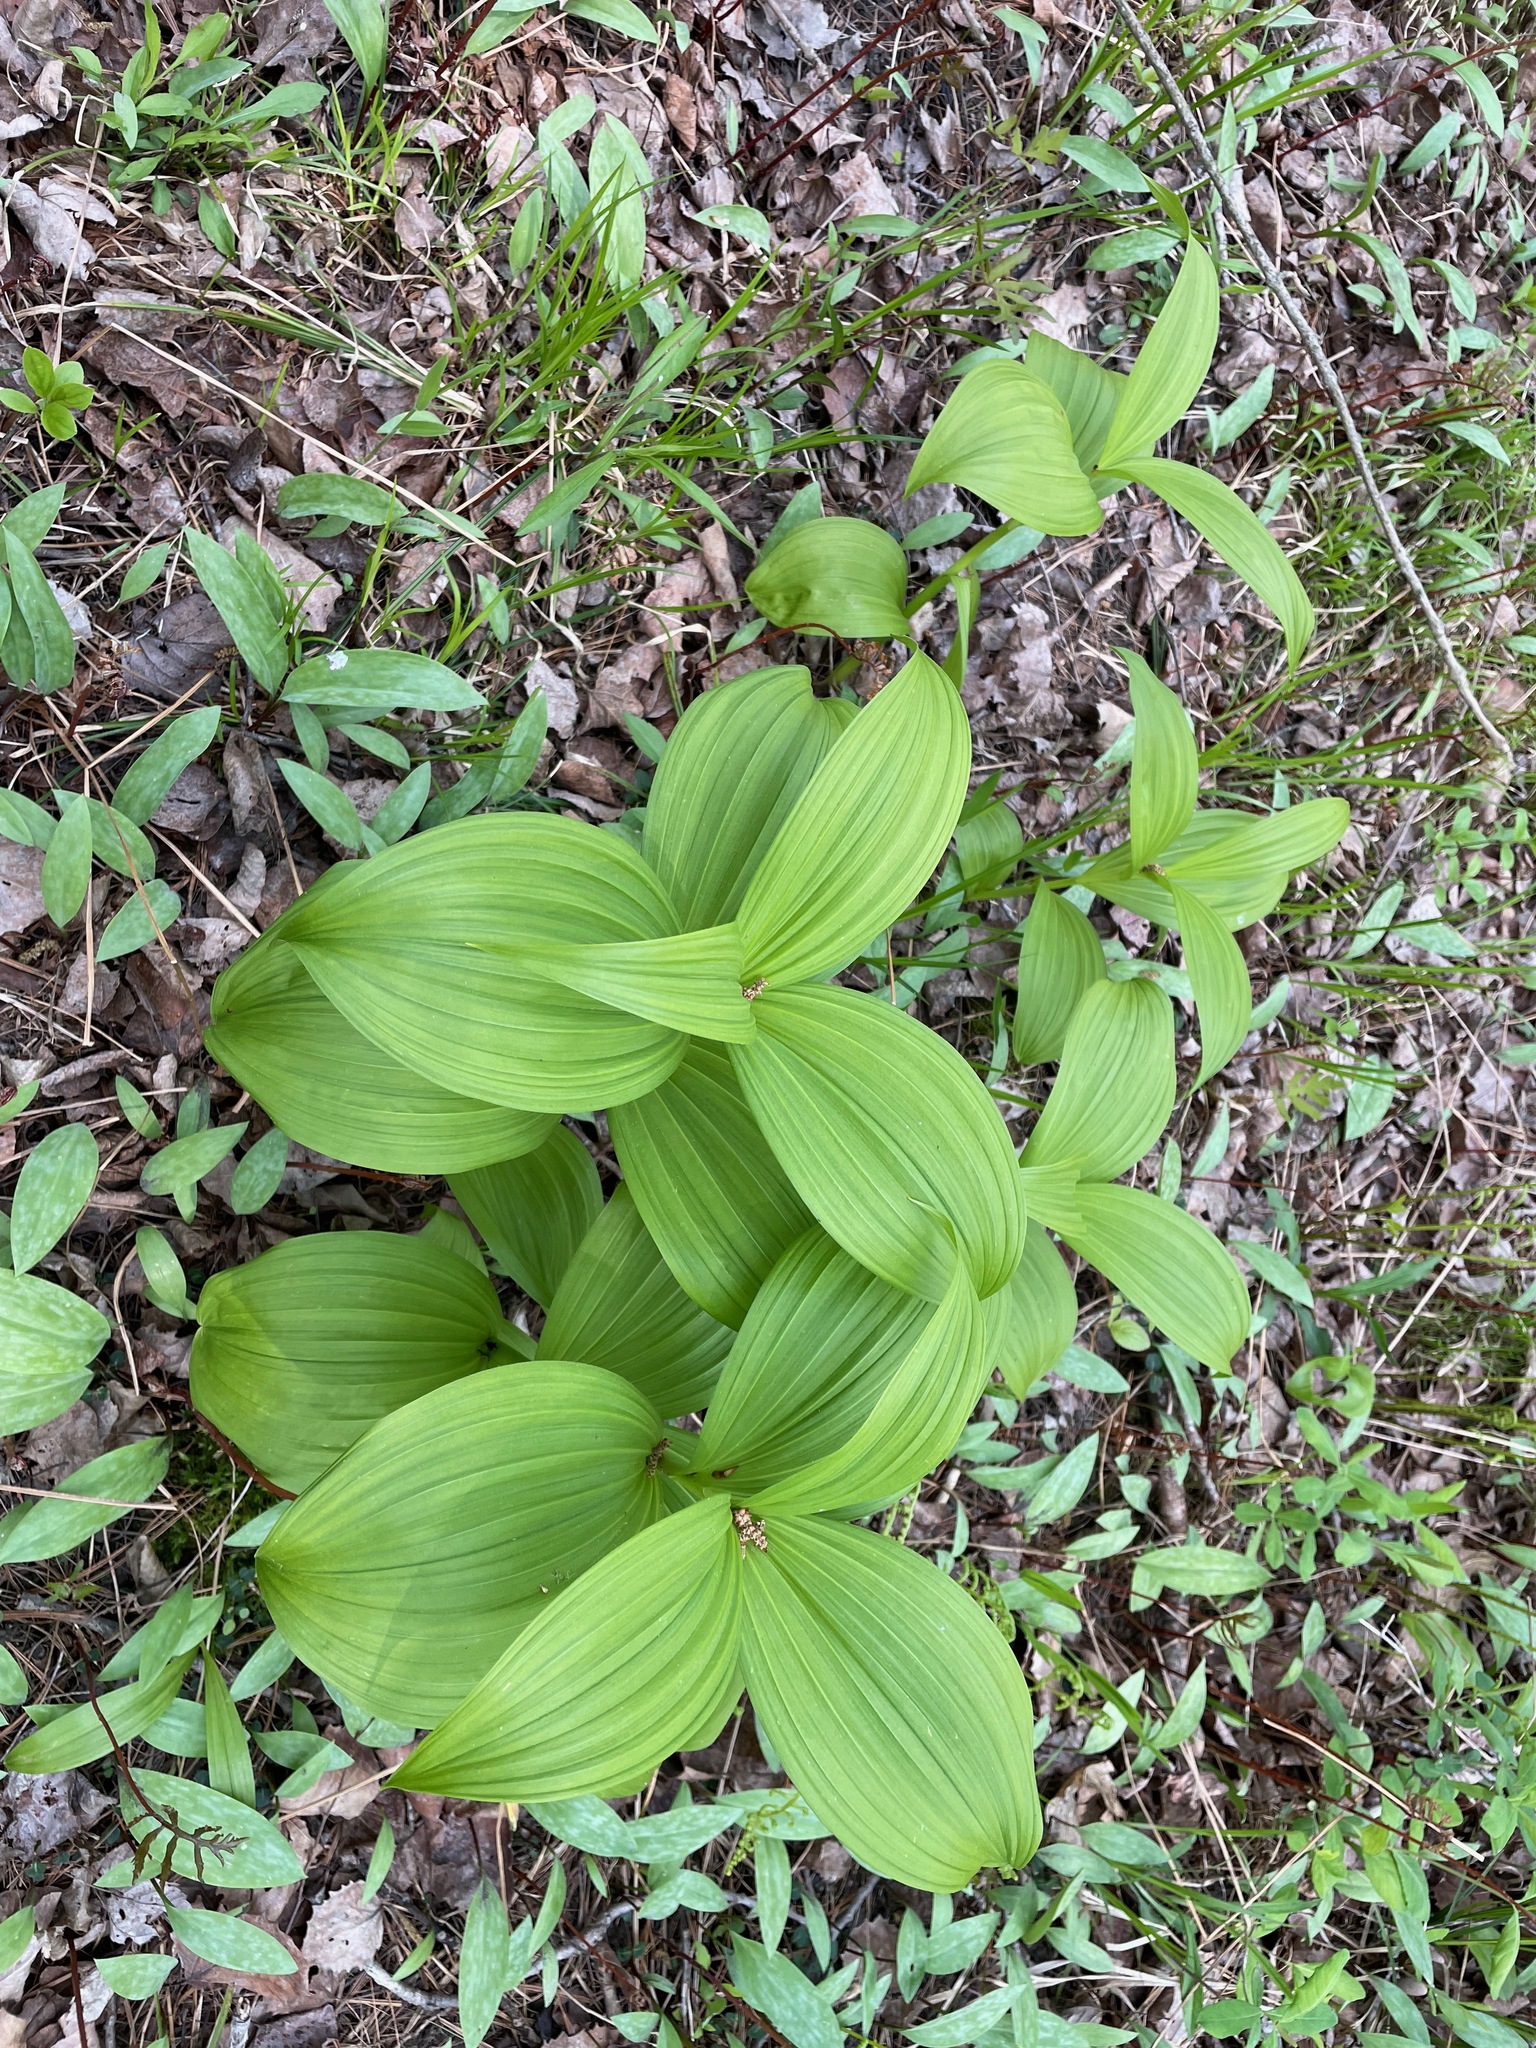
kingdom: Plantae
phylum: Tracheophyta
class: Liliopsida
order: Liliales
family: Melanthiaceae
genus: Veratrum
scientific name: Veratrum viride
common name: American false hellebore
